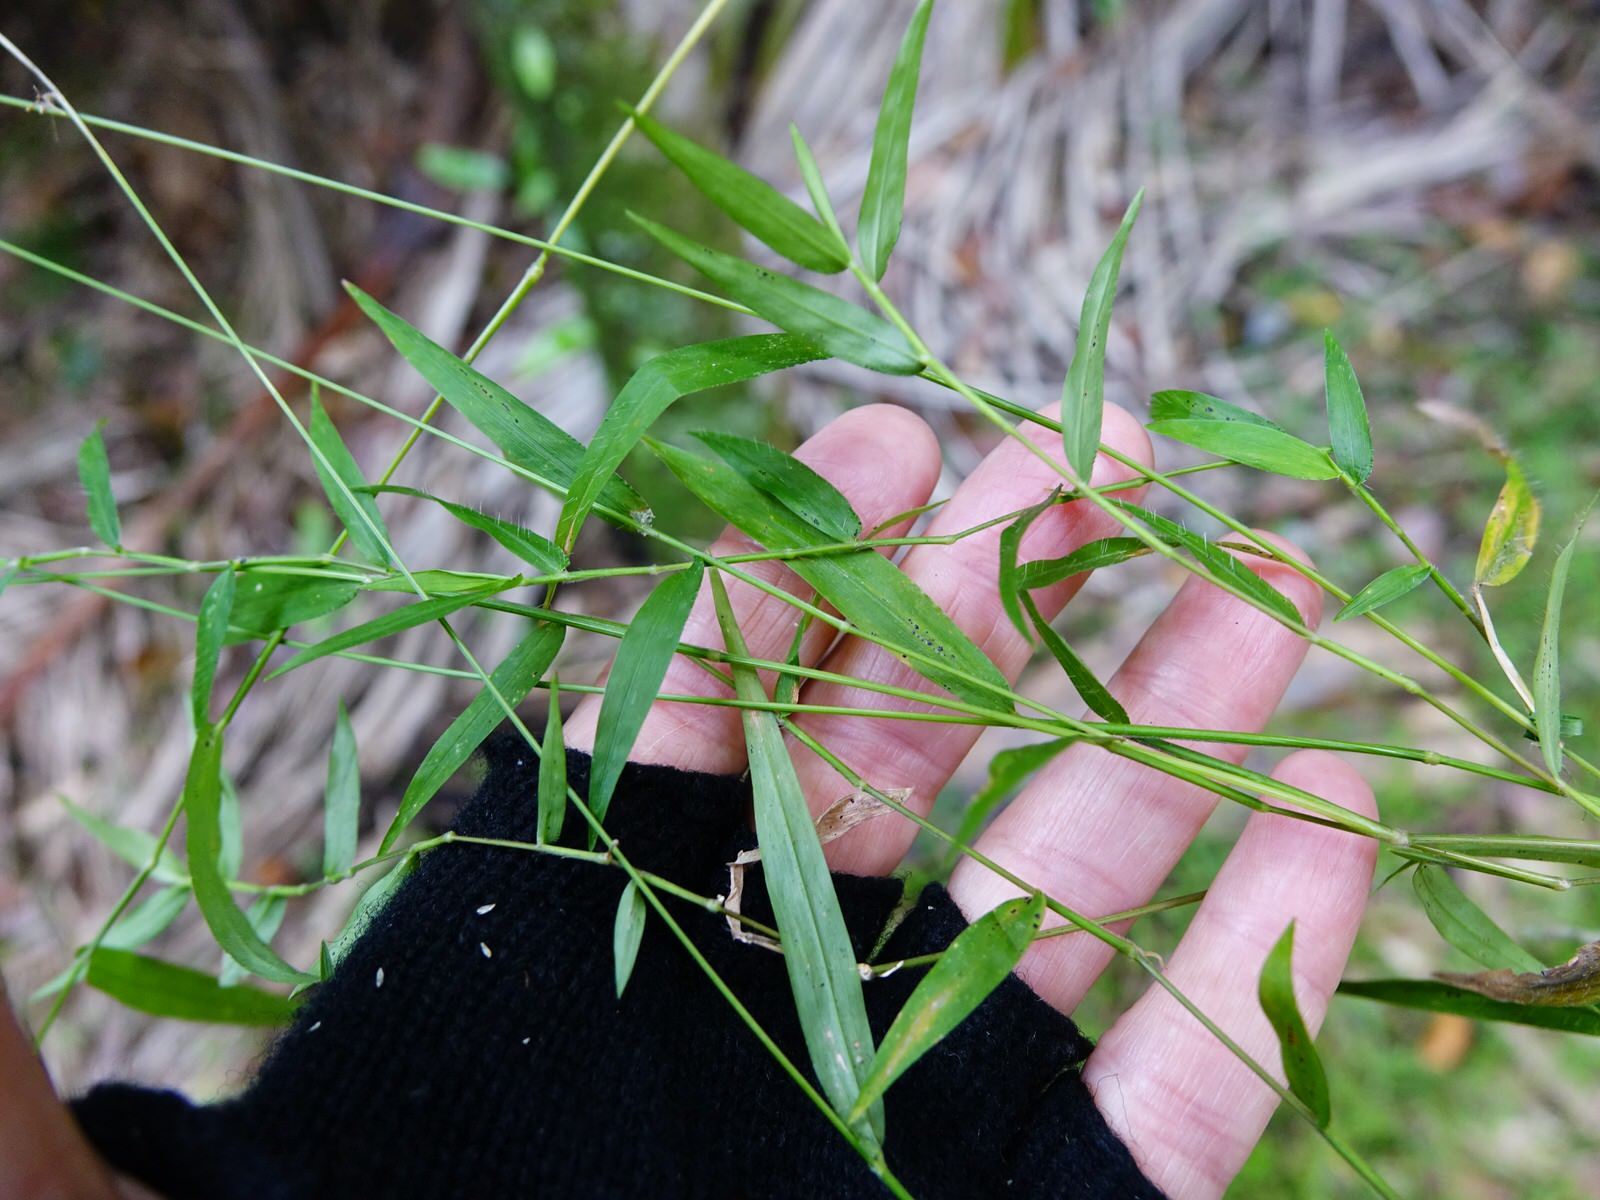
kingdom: Plantae
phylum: Tracheophyta
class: Liliopsida
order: Poales
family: Poaceae
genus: Oplismenus
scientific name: Oplismenus hirtellus
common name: Basketgrass
